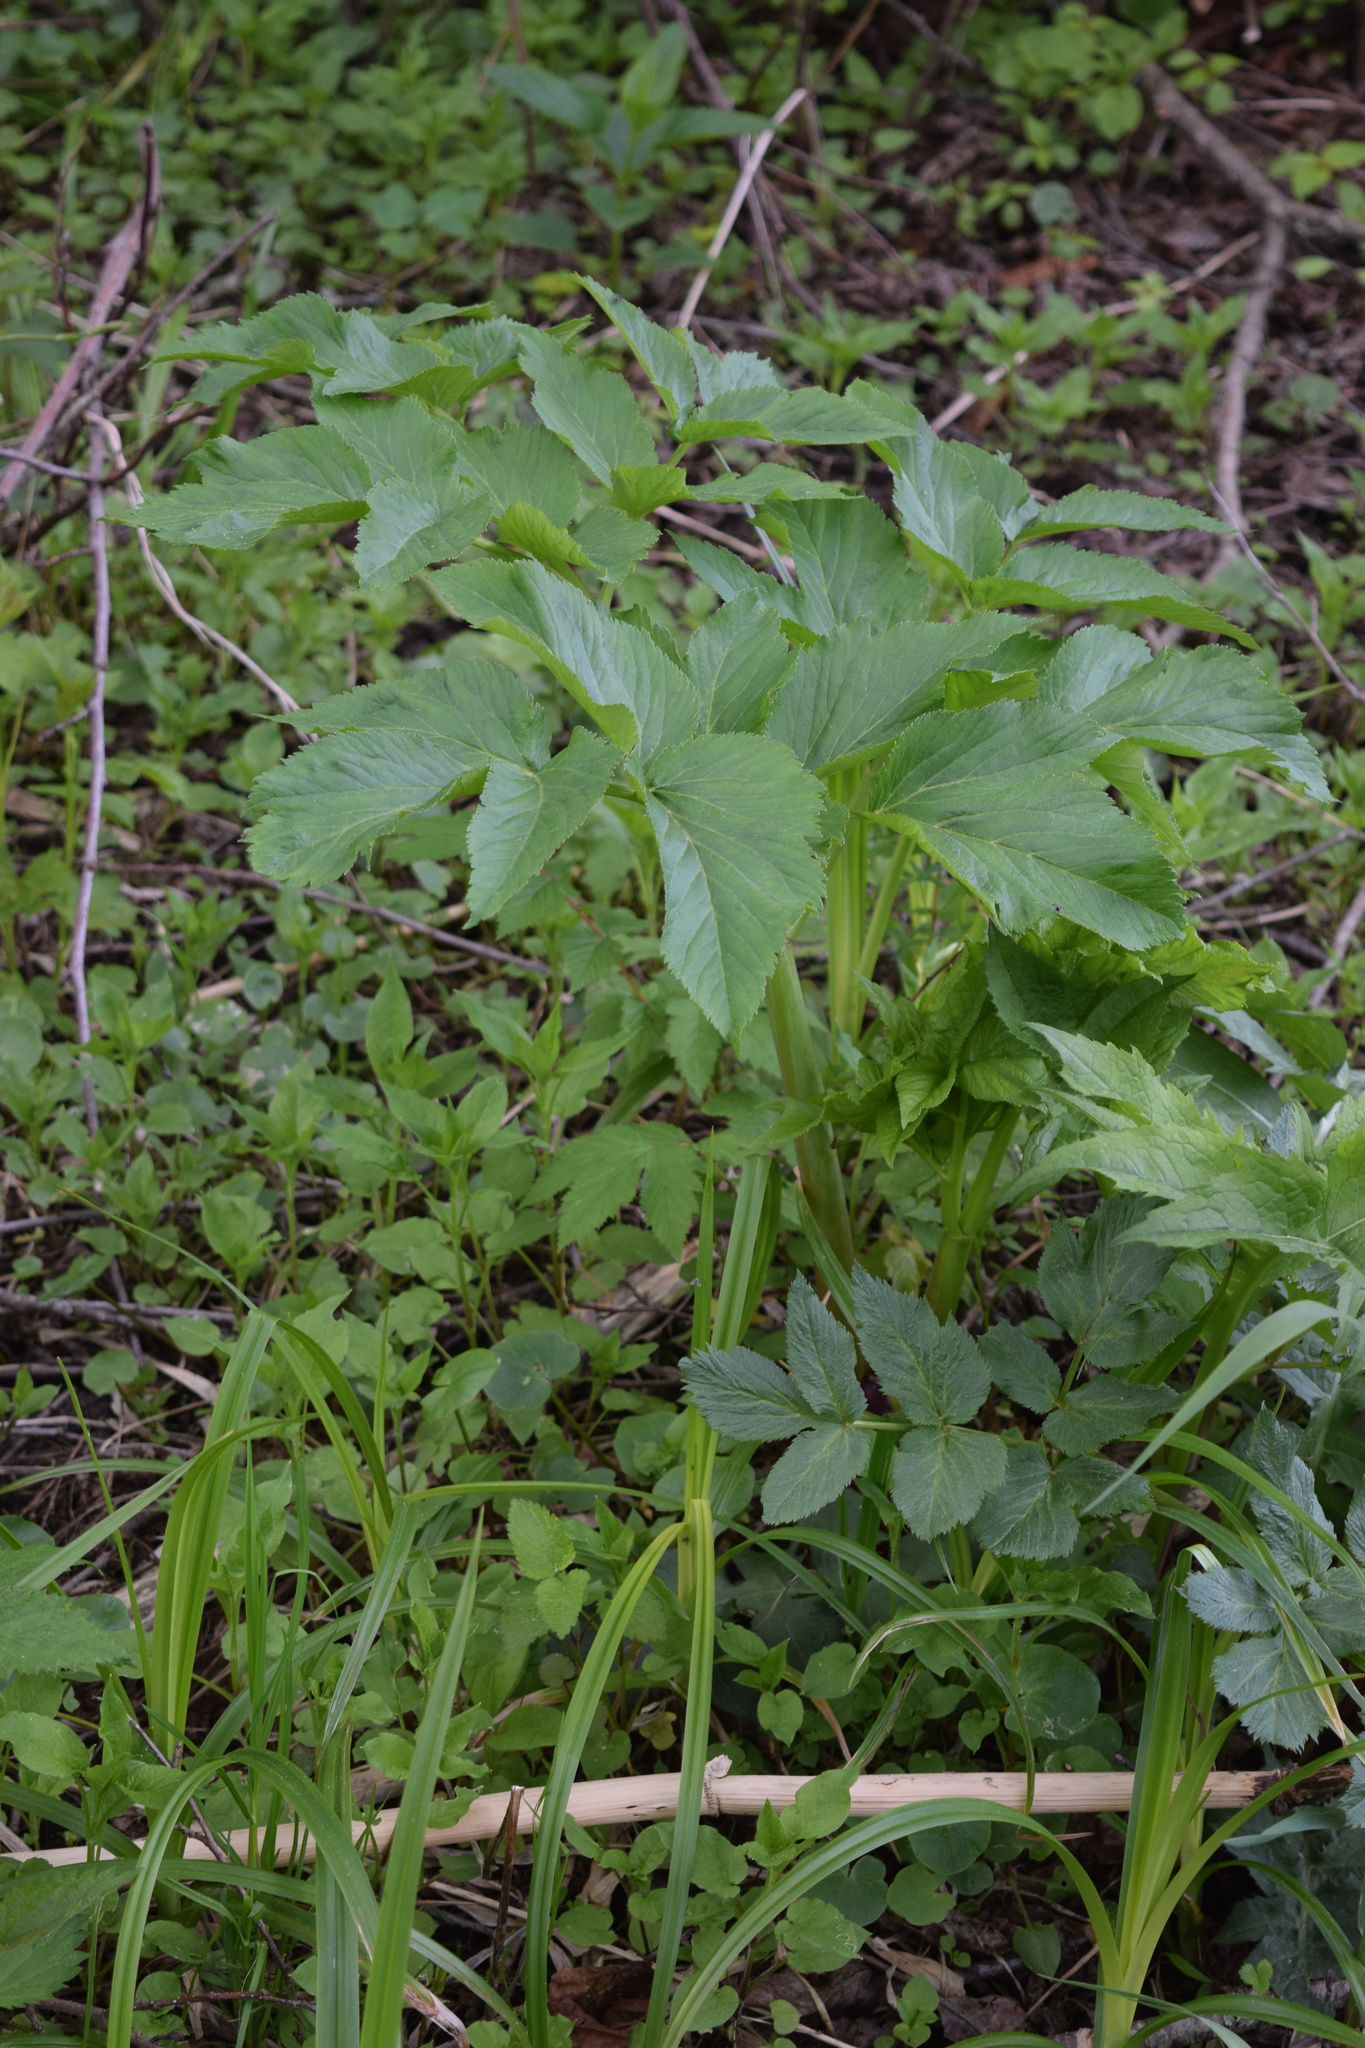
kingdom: Plantae
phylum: Tracheophyta
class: Magnoliopsida
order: Apiales
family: Apiaceae
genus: Angelica
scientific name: Angelica archangelica
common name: Garden angelica
